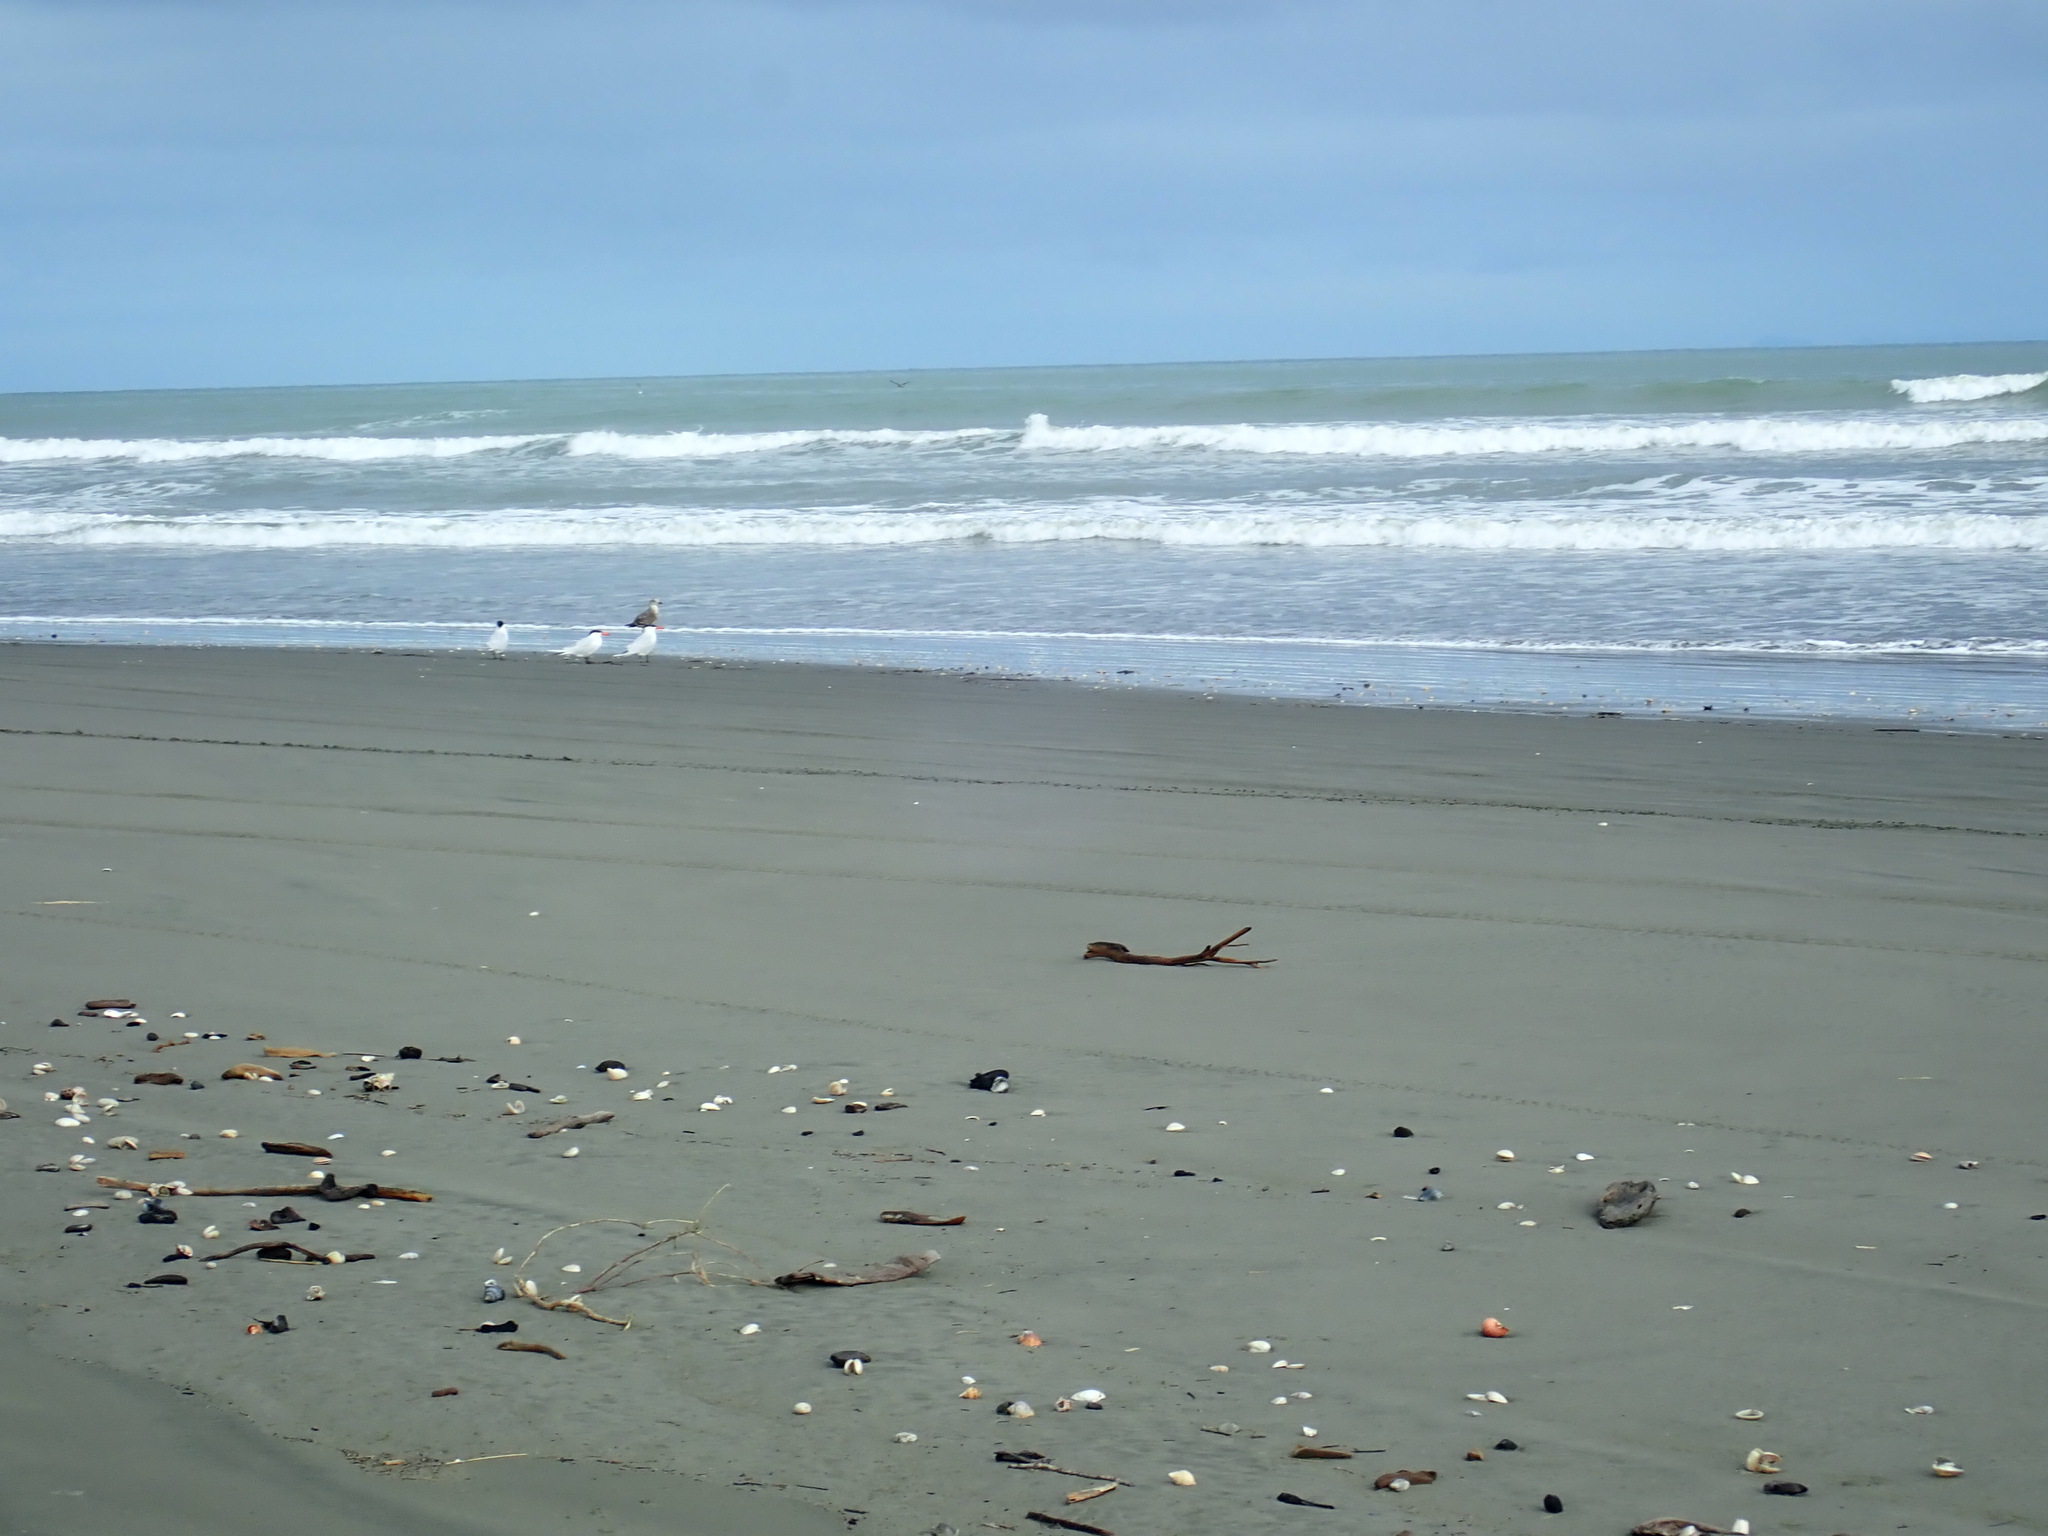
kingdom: Animalia
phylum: Chordata
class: Aves
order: Charadriiformes
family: Laridae
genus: Hydroprogne
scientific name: Hydroprogne caspia
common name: Caspian tern
